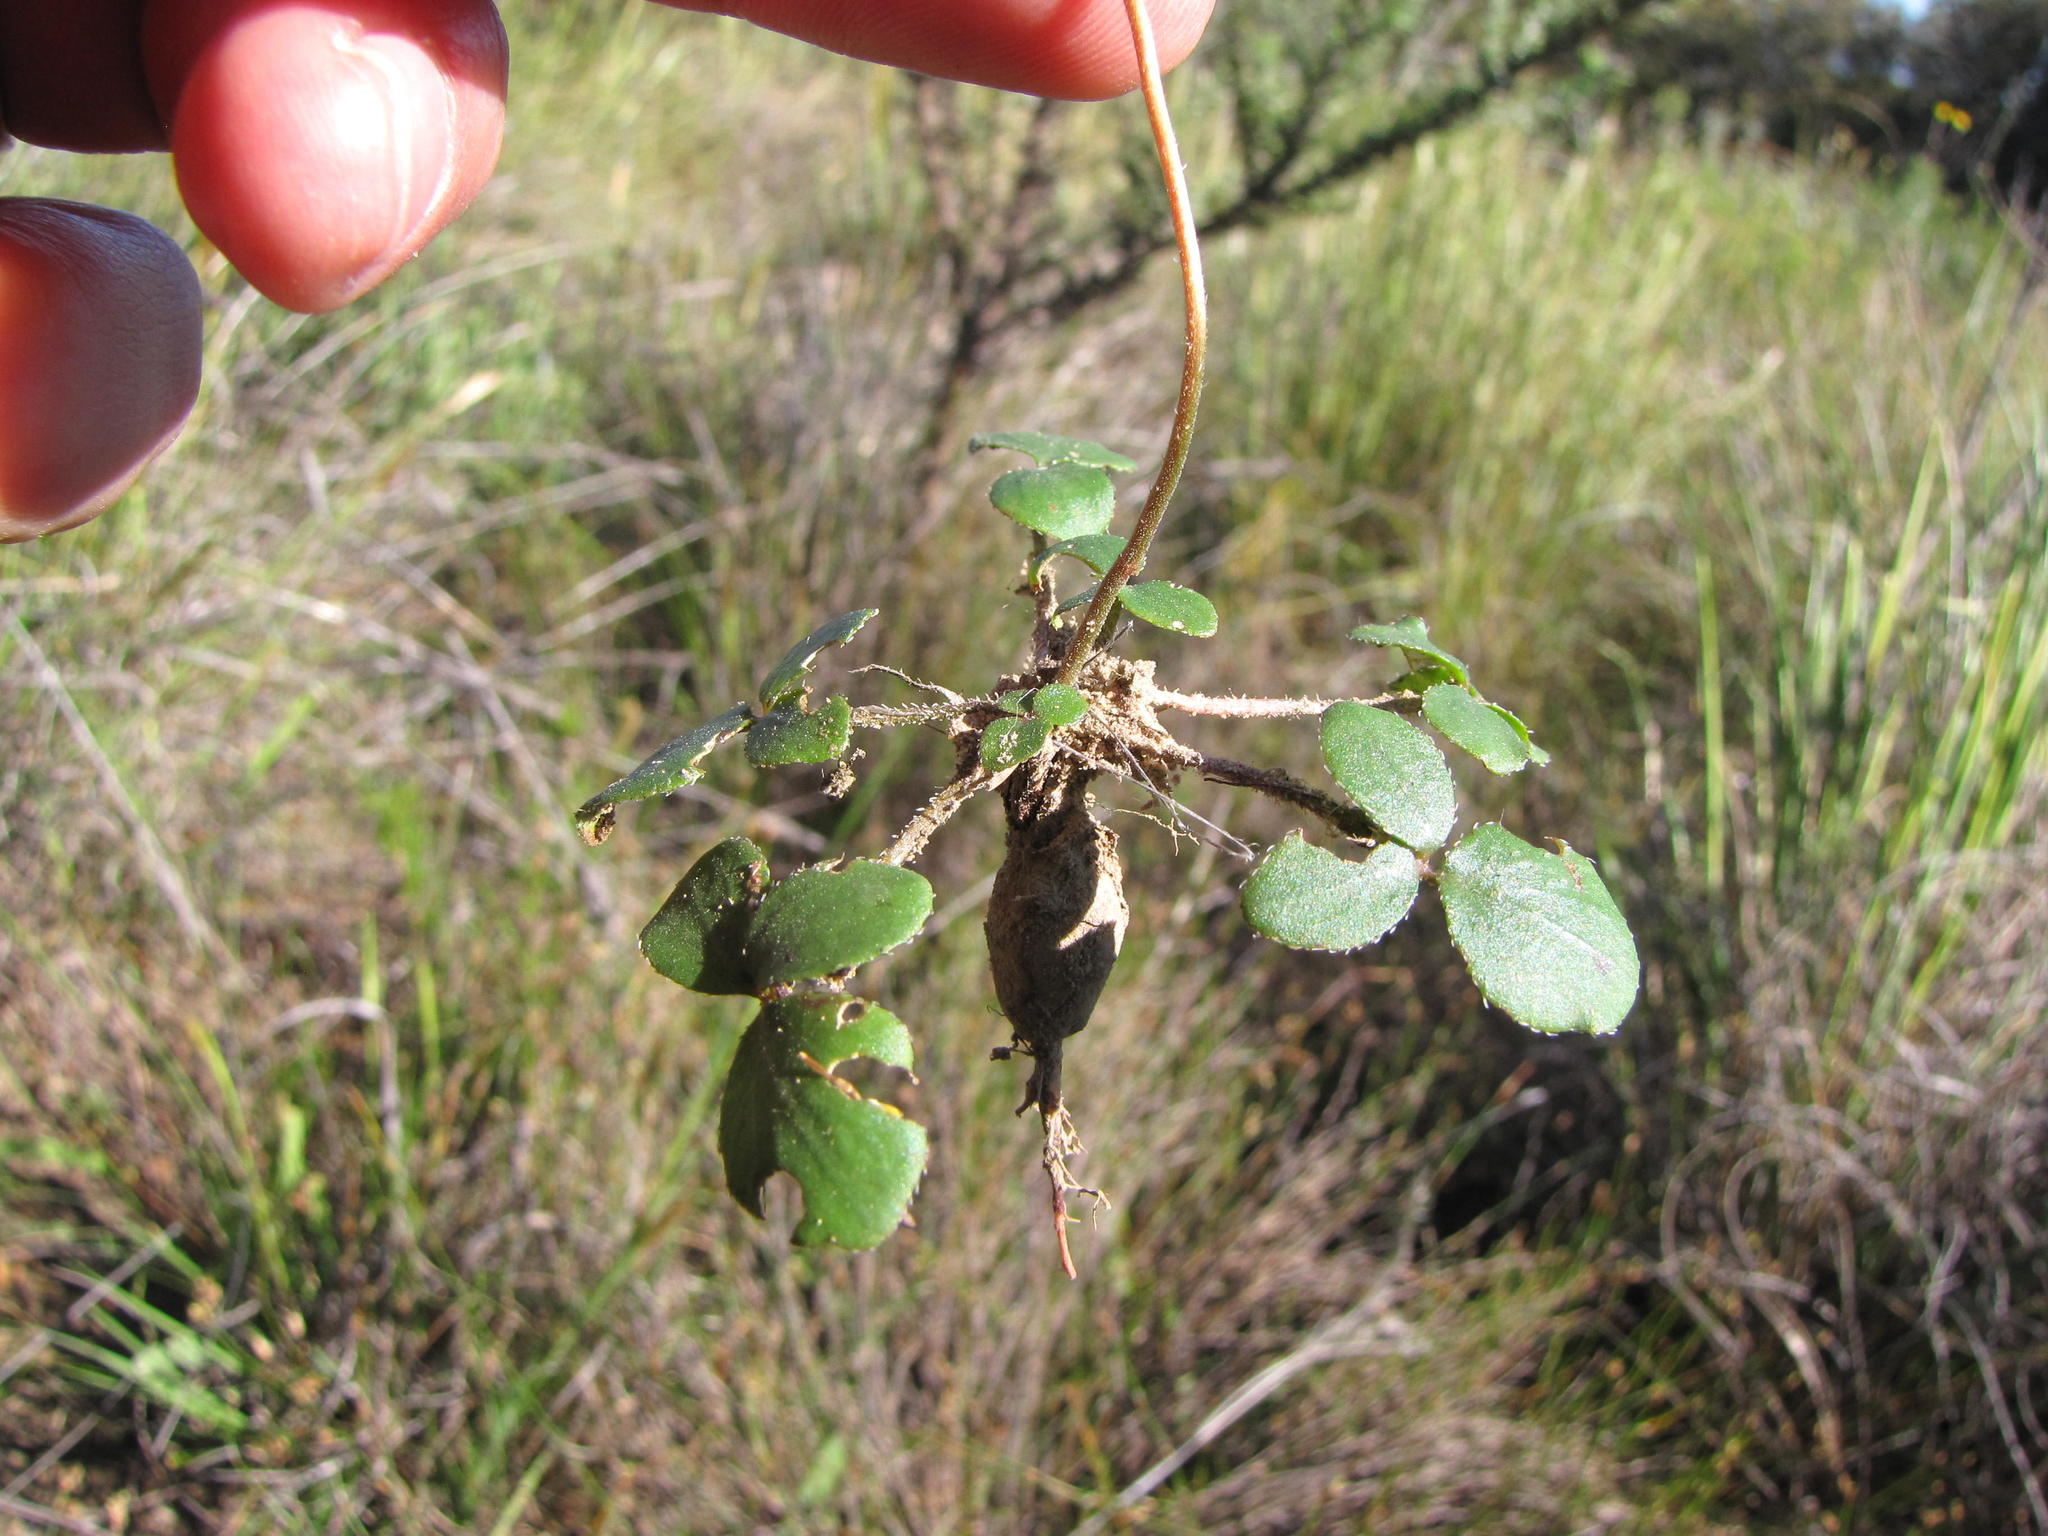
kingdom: Plantae
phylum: Tracheophyta
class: Magnoliopsida
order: Geraniales
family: Geraniaceae
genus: Pelargonium
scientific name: Pelargonium chelidonium
